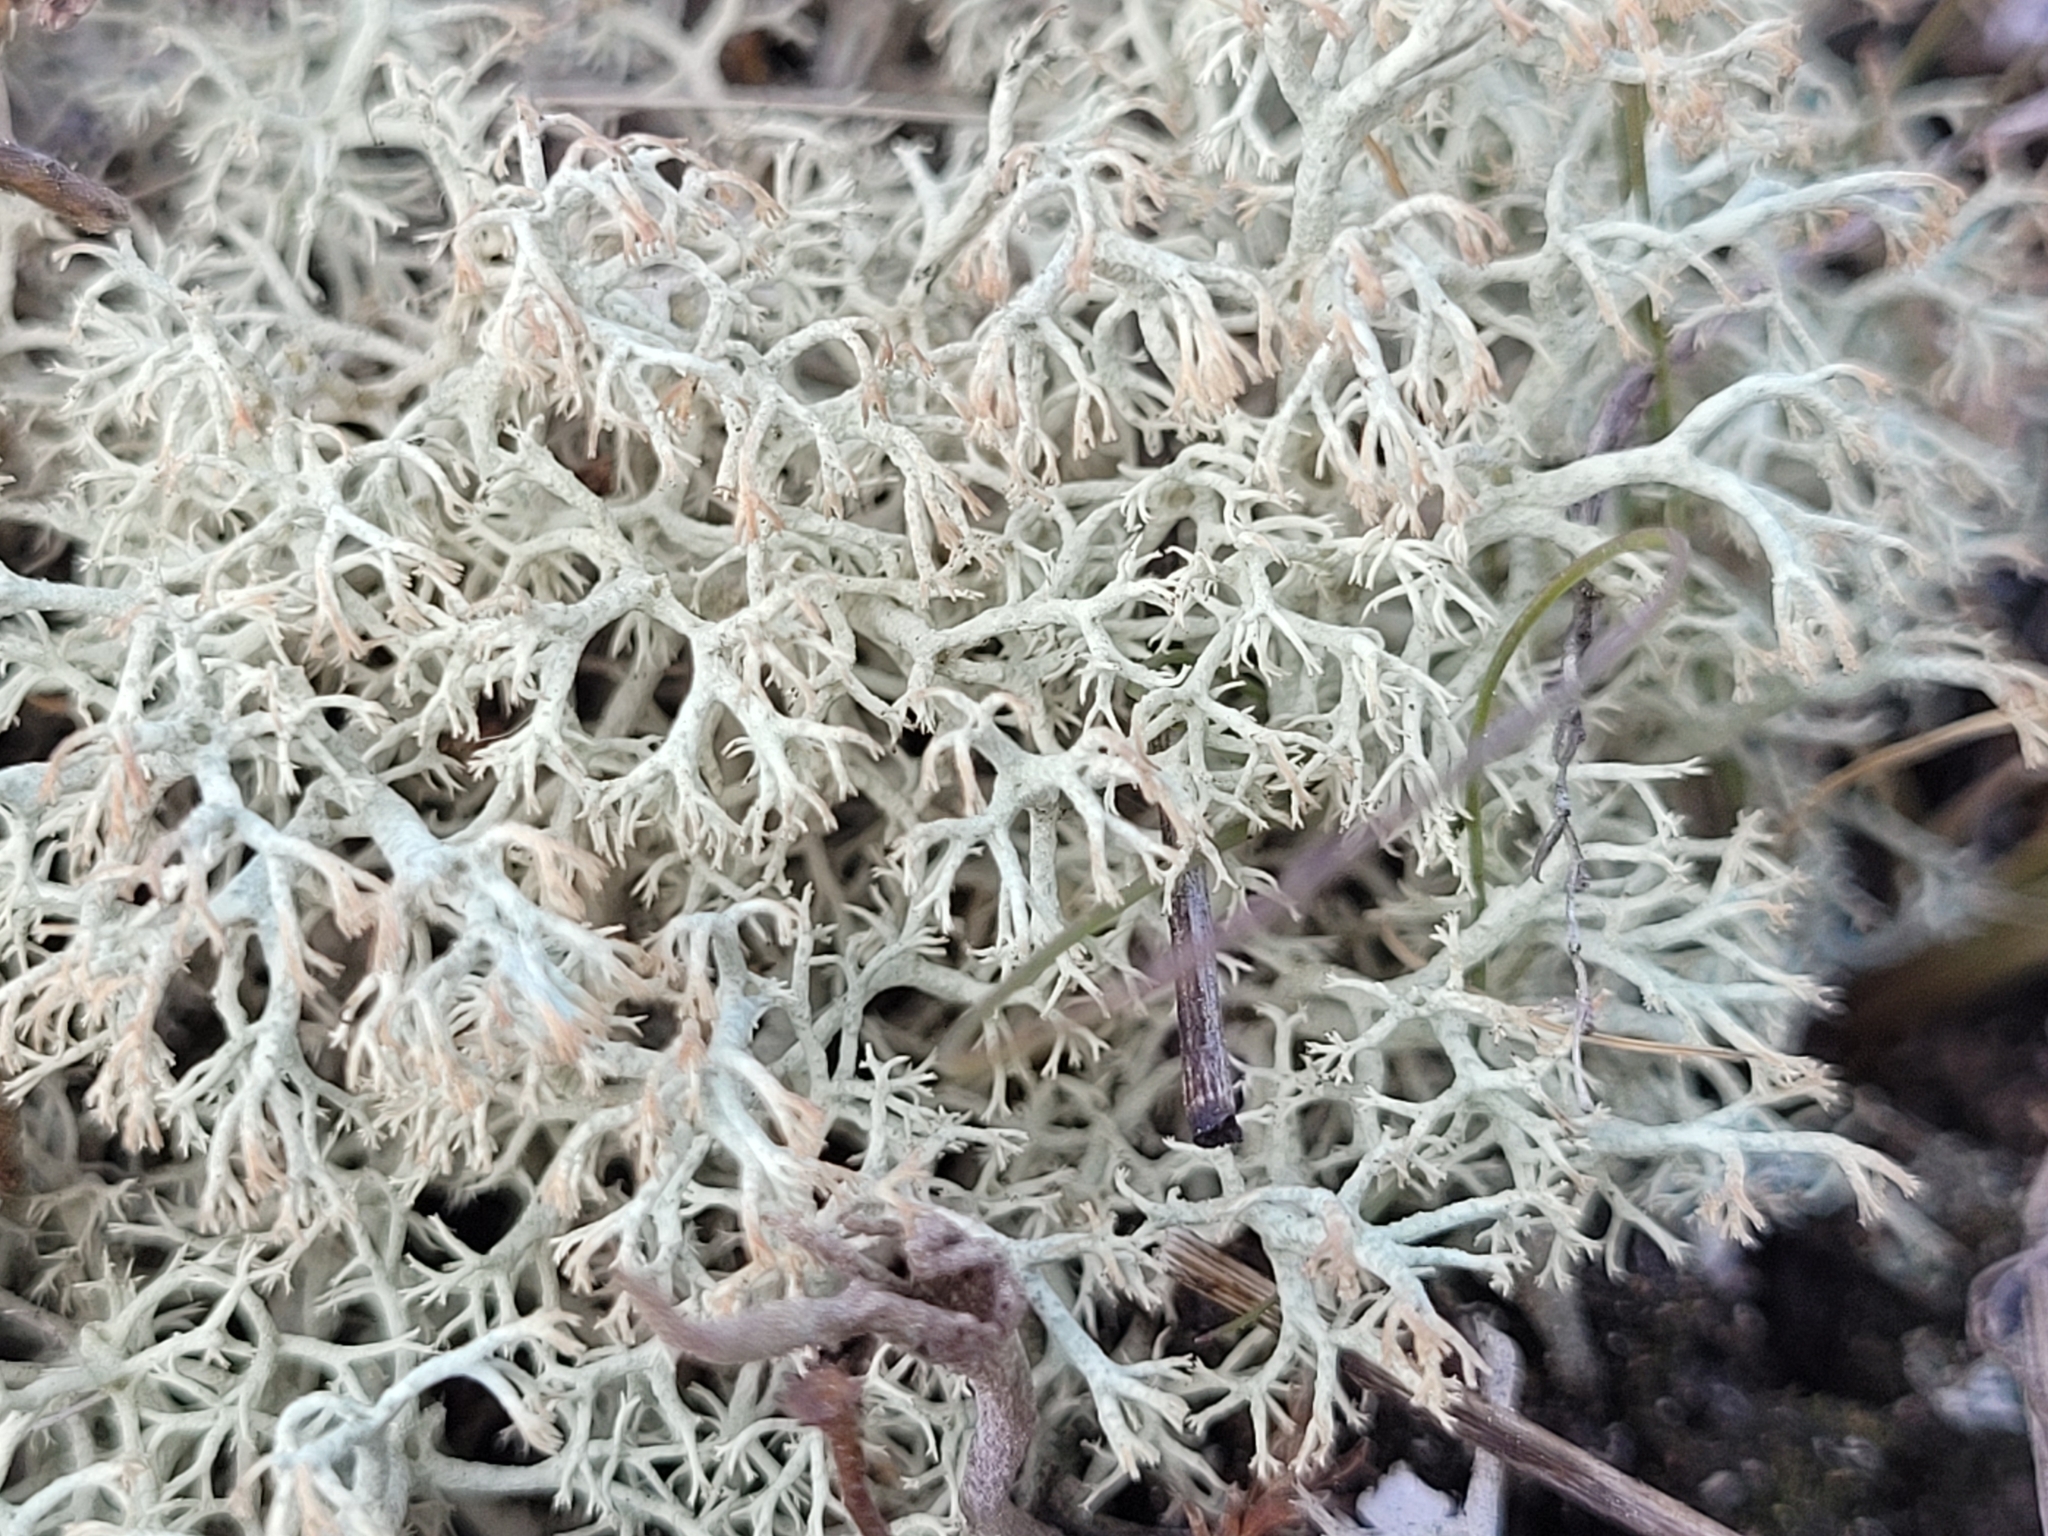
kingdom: Fungi
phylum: Ascomycota
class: Lecanoromycetes
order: Lecanorales
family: Cladoniaceae
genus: Cladonia
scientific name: Cladonia arbuscula
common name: Reindeer lichen
